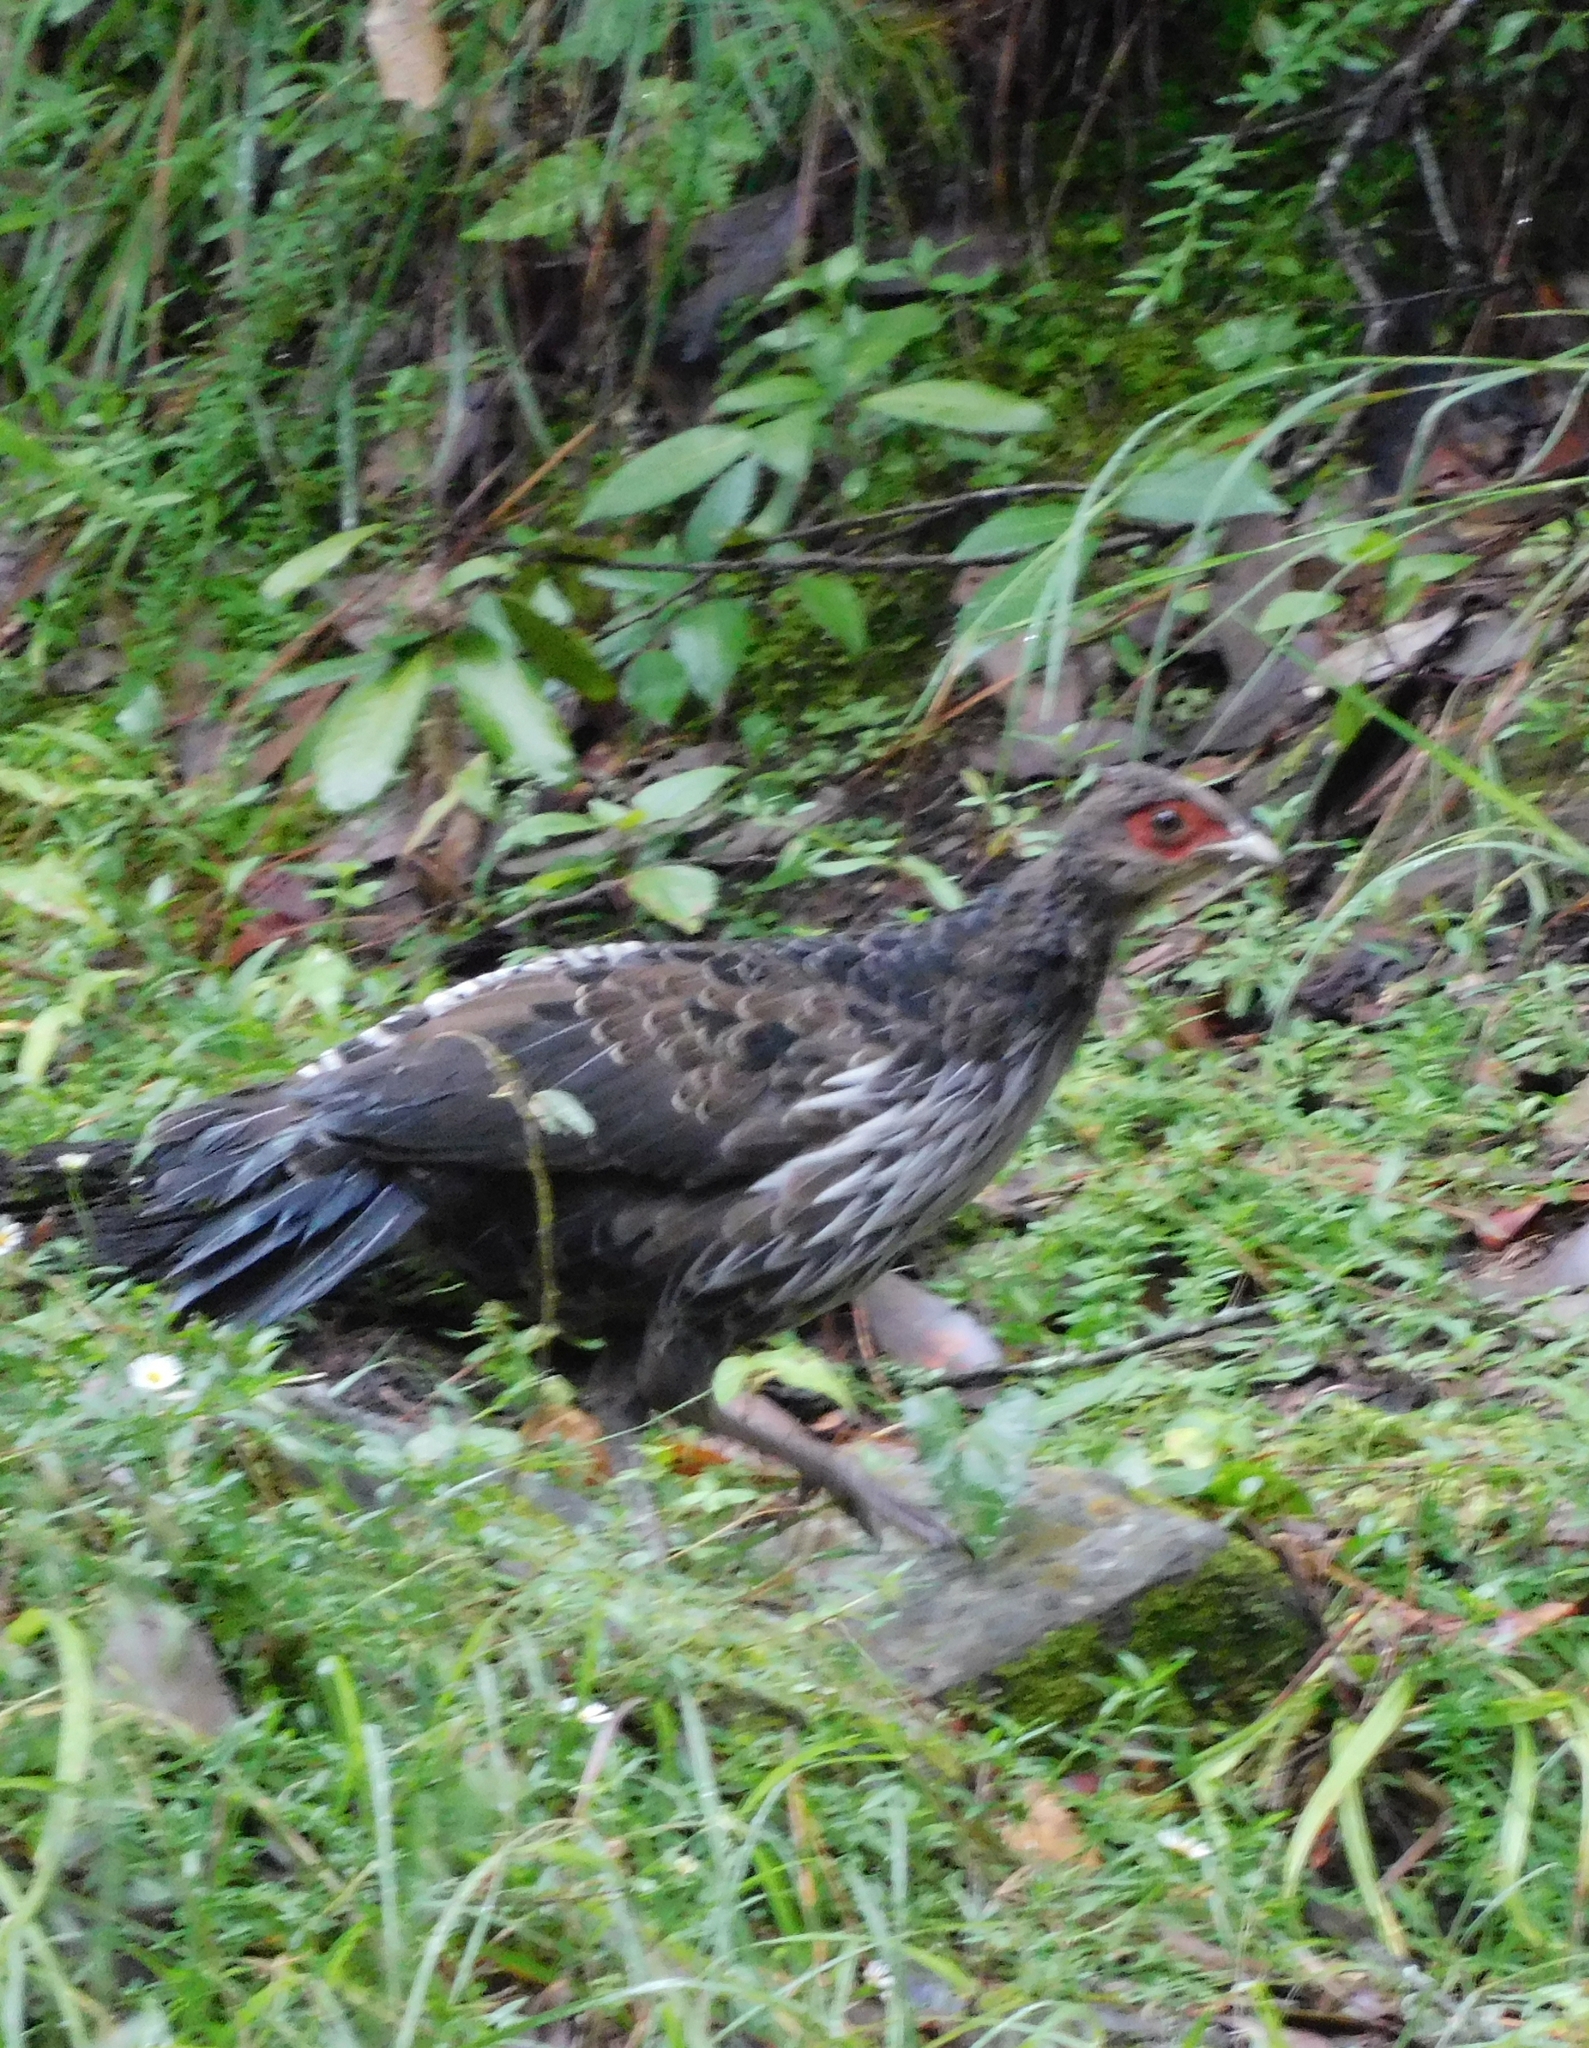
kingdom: Animalia
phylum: Chordata
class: Aves
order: Galliformes
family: Phasianidae
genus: Lophura
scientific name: Lophura leucomelanos
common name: Kalij pheasant
